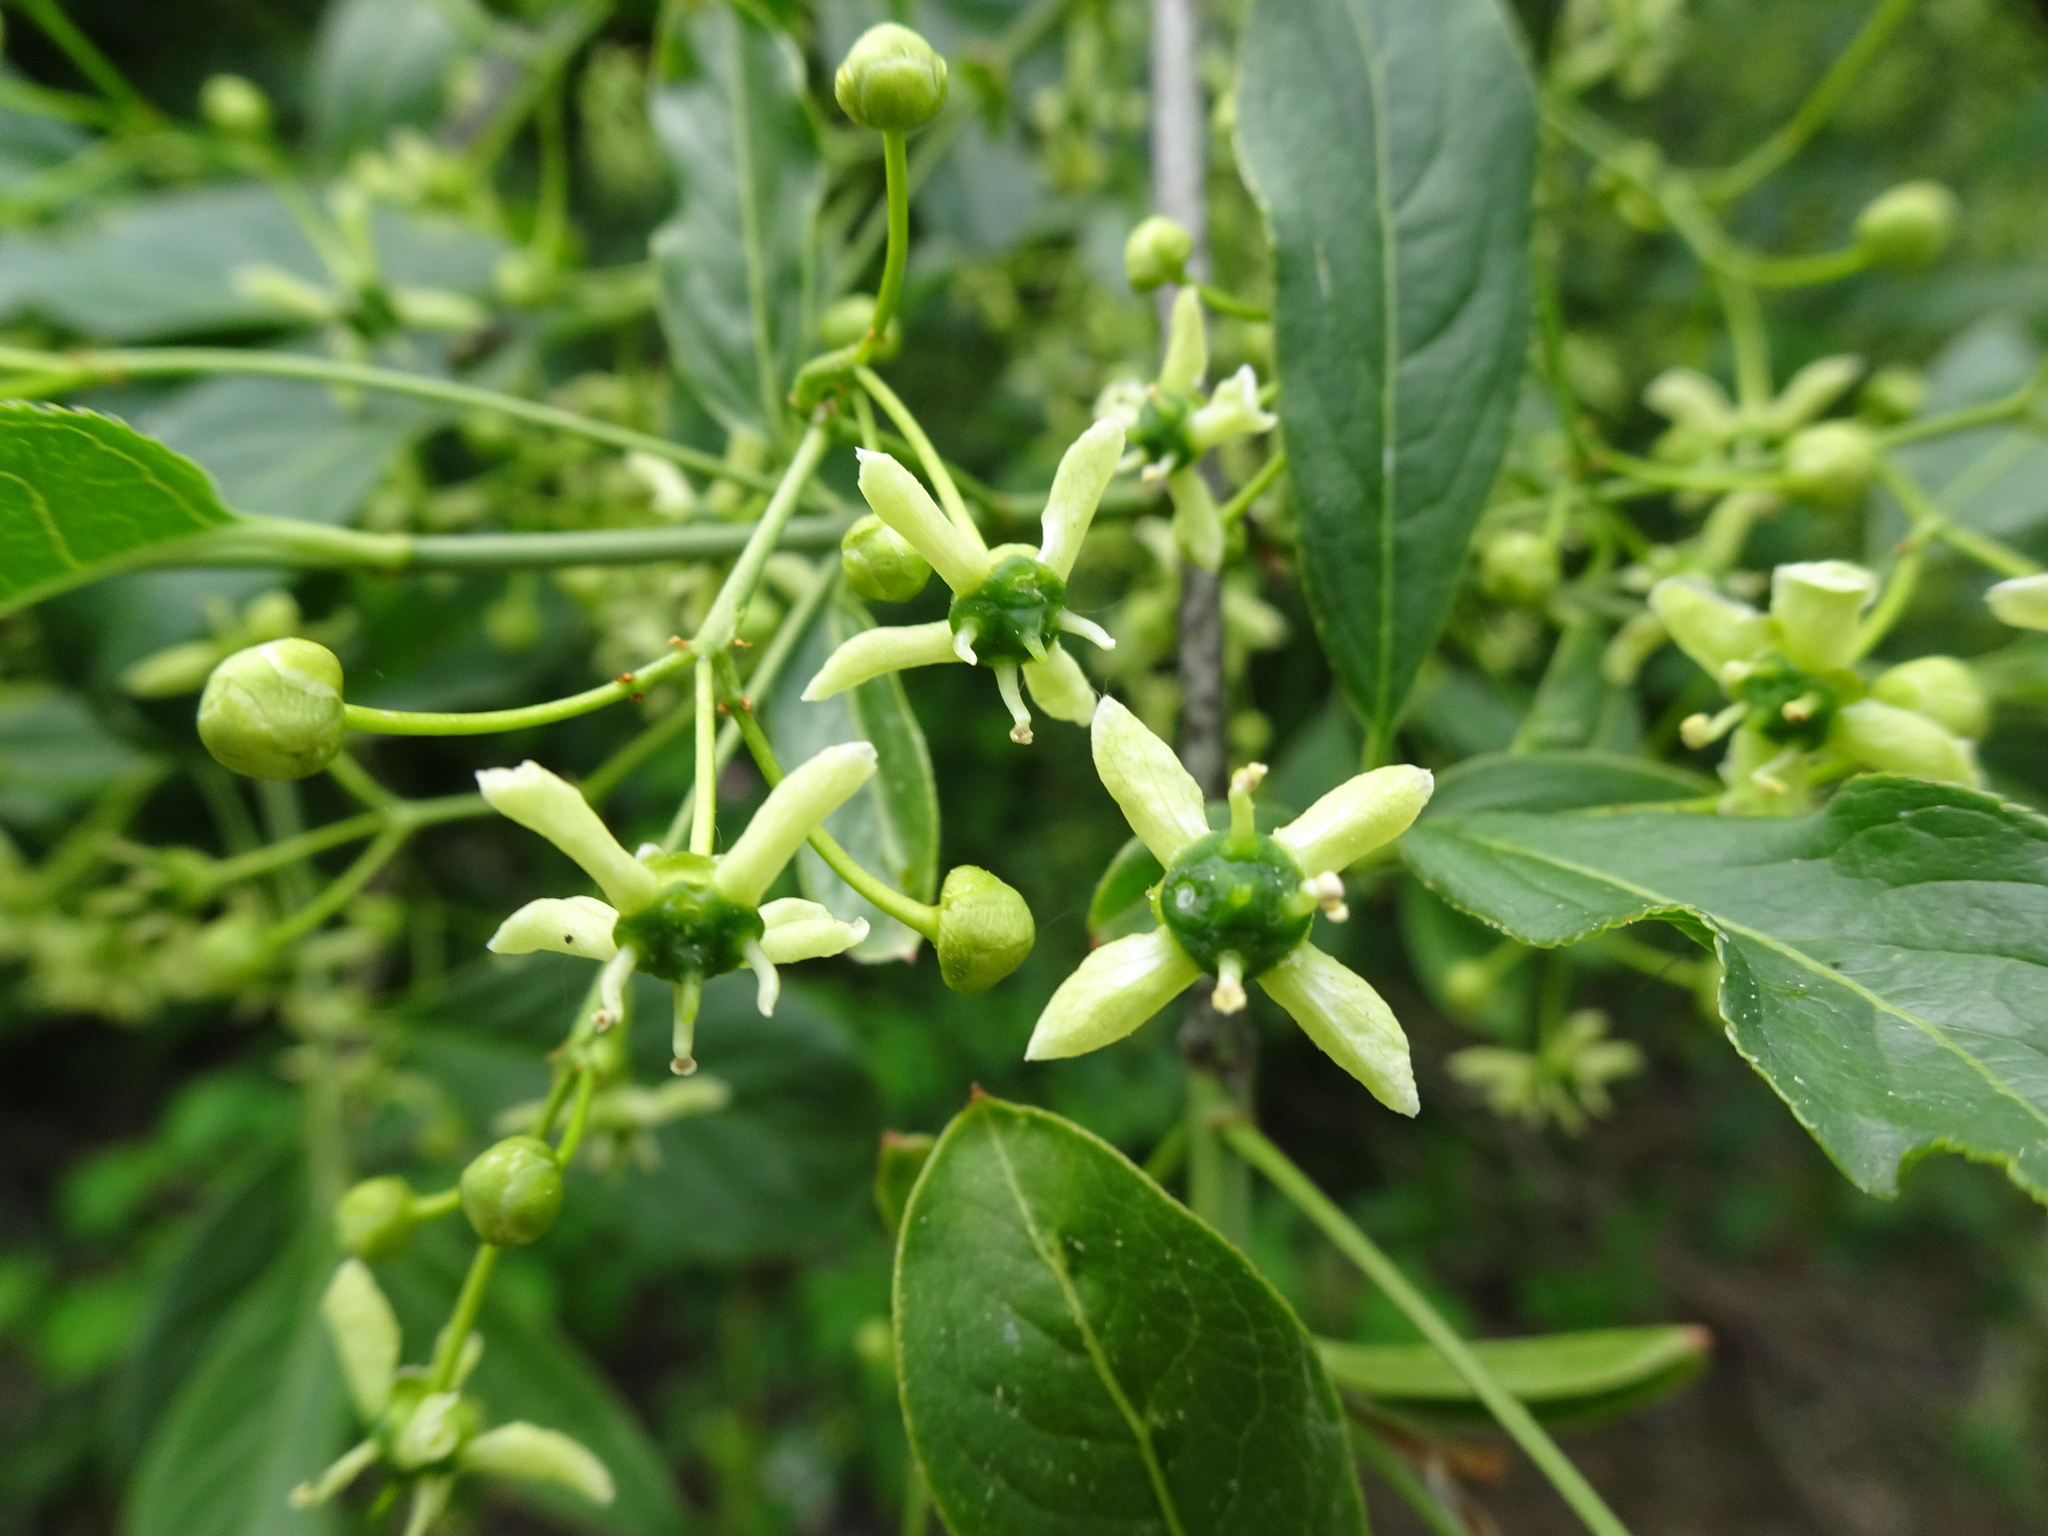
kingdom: Plantae
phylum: Tracheophyta
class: Magnoliopsida
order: Celastrales
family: Celastraceae
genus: Euonymus
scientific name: Euonymus europaeus
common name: Spindle
